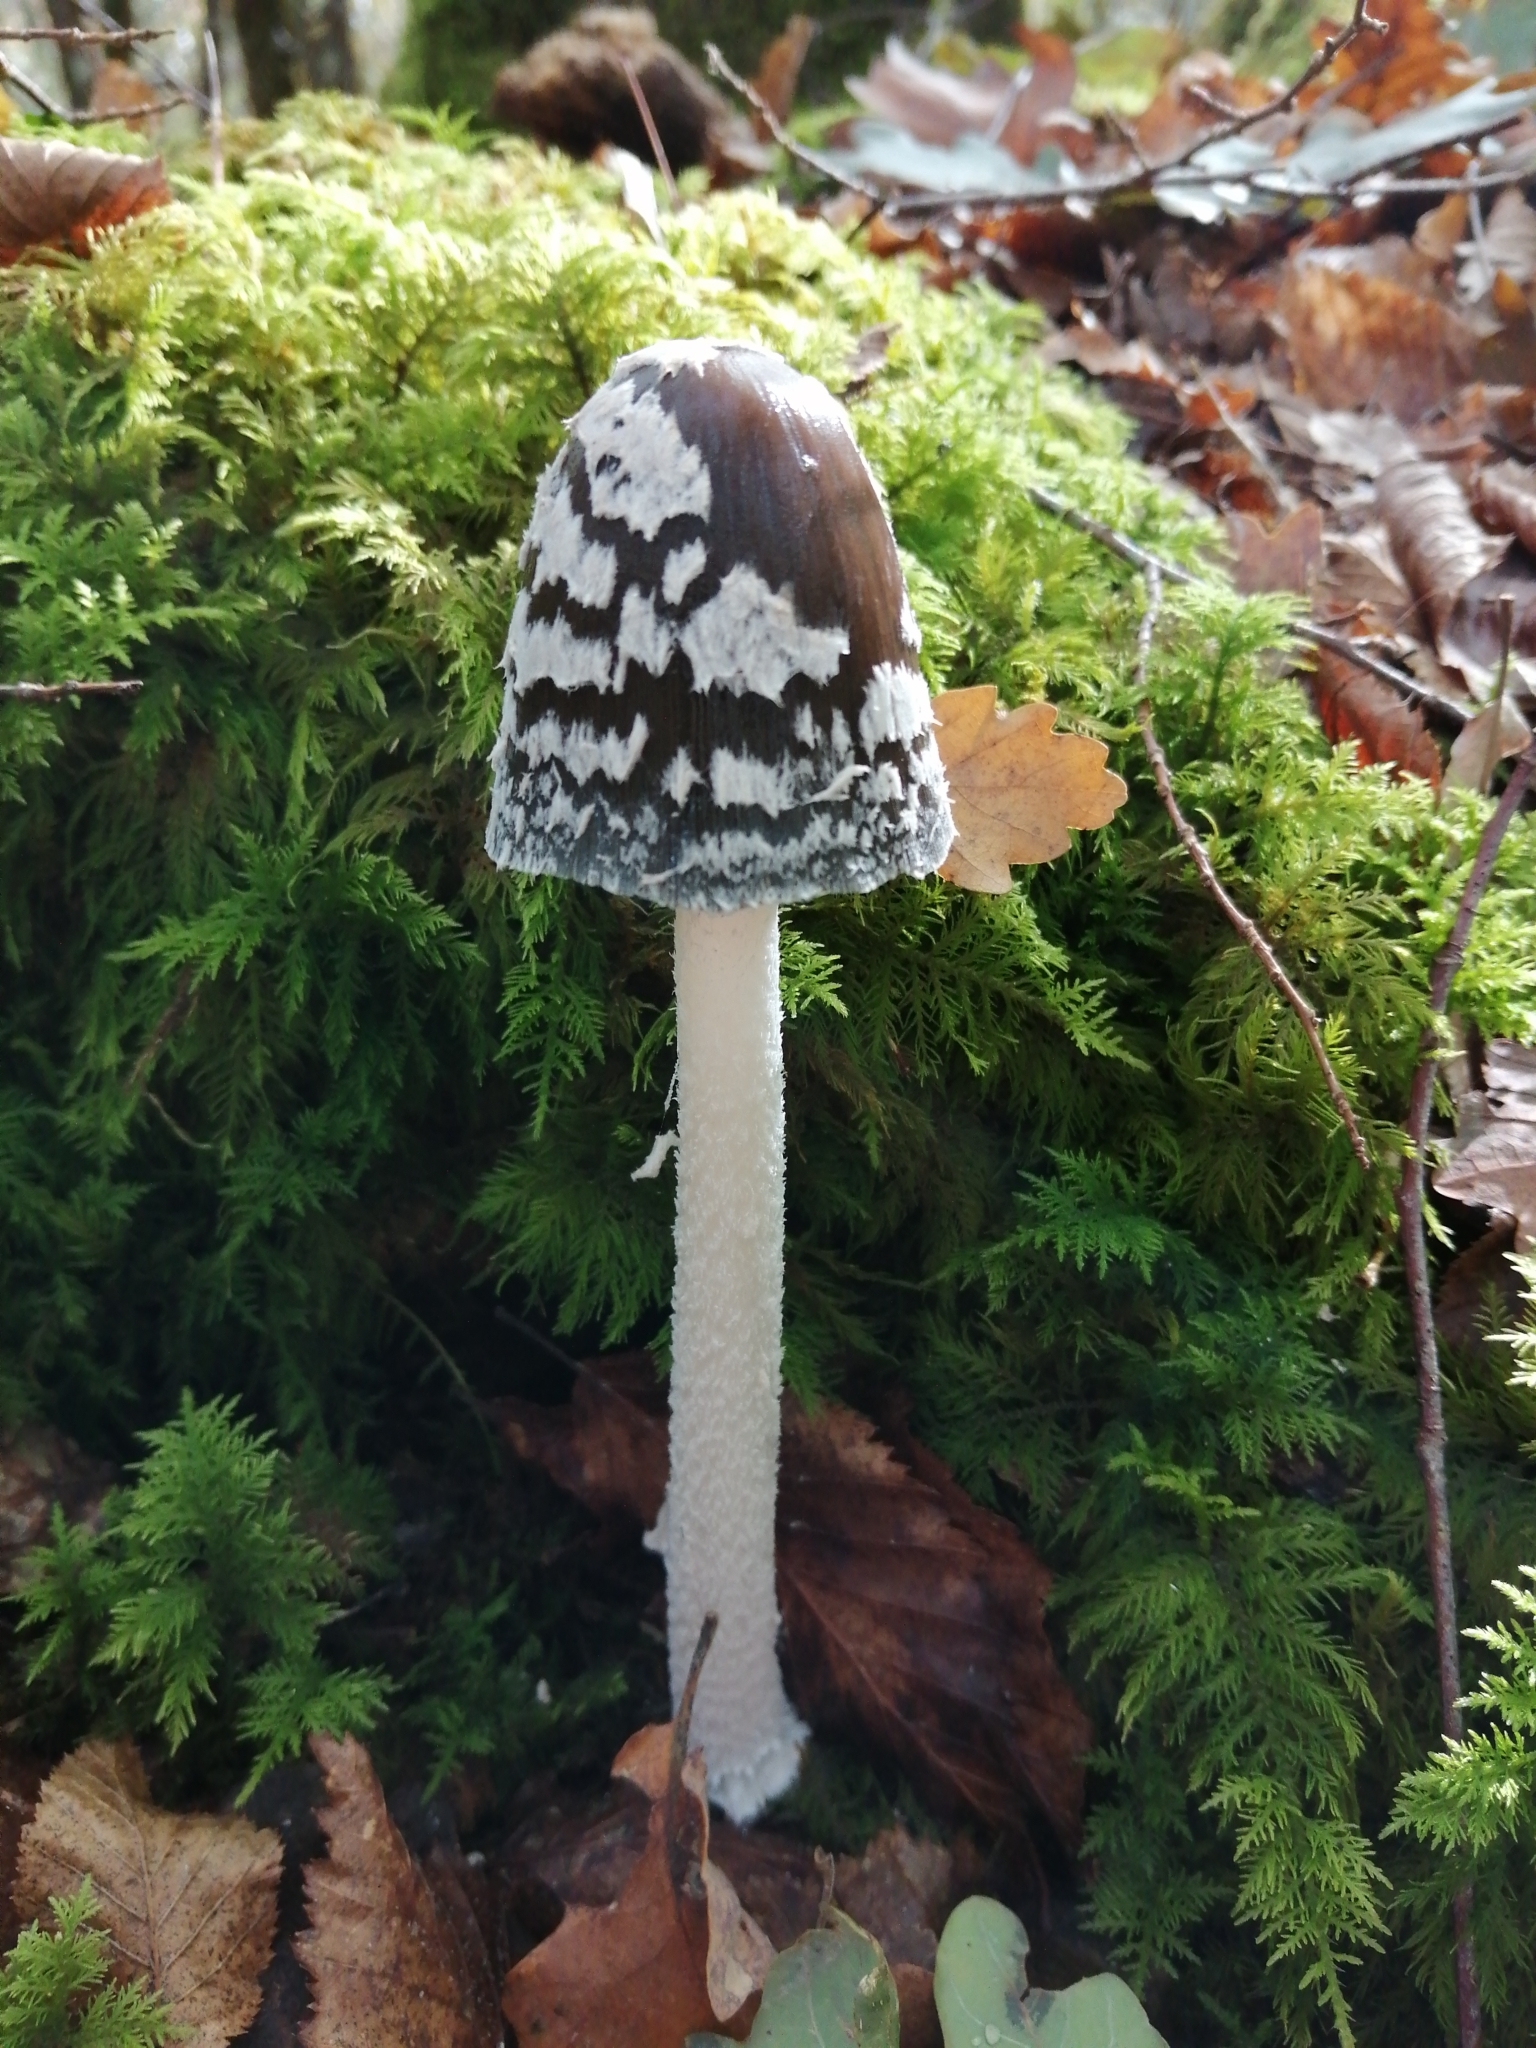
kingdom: Fungi
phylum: Basidiomycota
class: Agaricomycetes
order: Agaricales
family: Psathyrellaceae
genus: Coprinopsis
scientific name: Coprinopsis picacea
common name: Magpie inkcap
